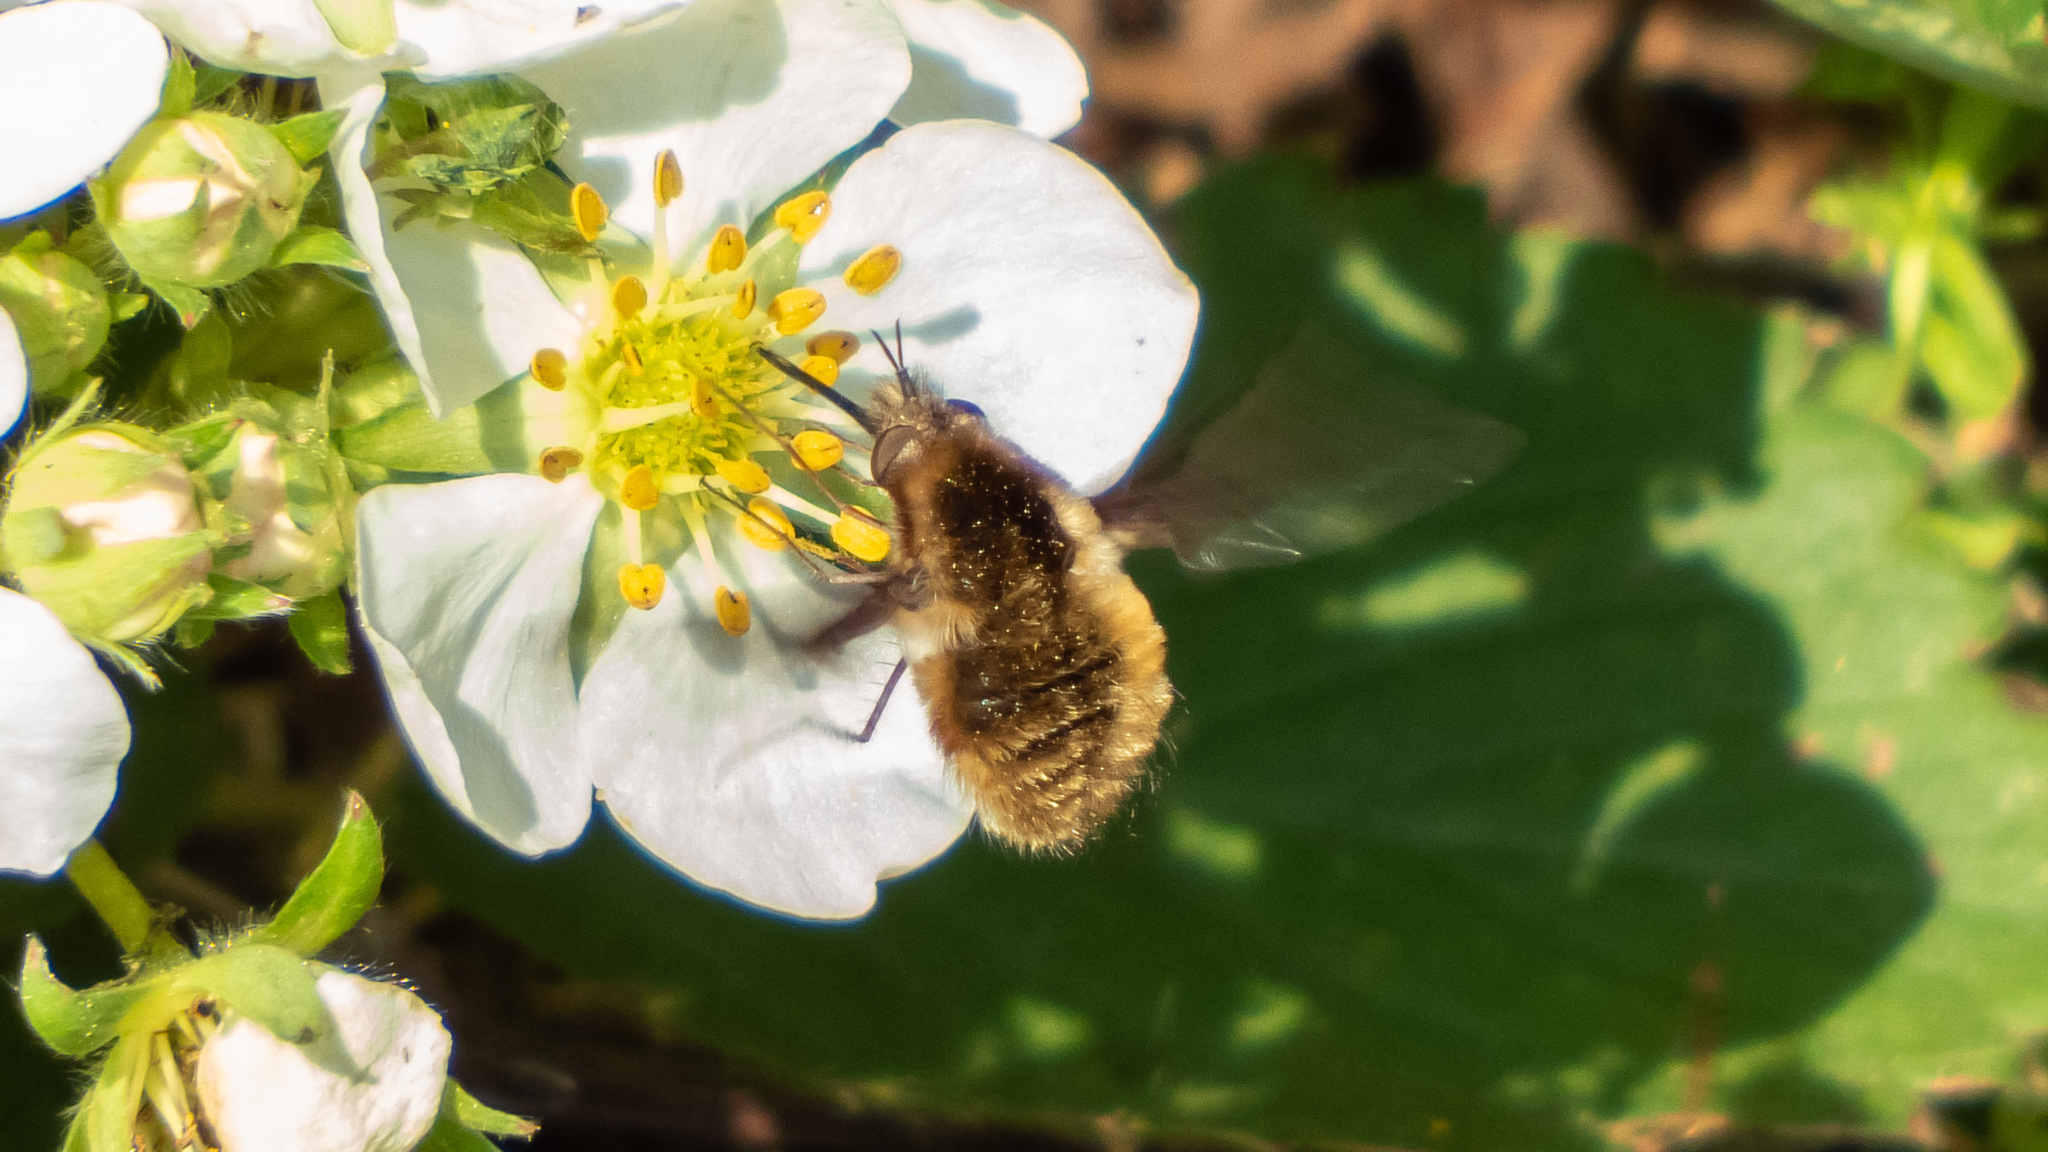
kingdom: Animalia
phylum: Arthropoda
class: Insecta
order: Diptera
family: Bombyliidae
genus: Bombylius
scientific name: Bombylius major
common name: Bee fly
